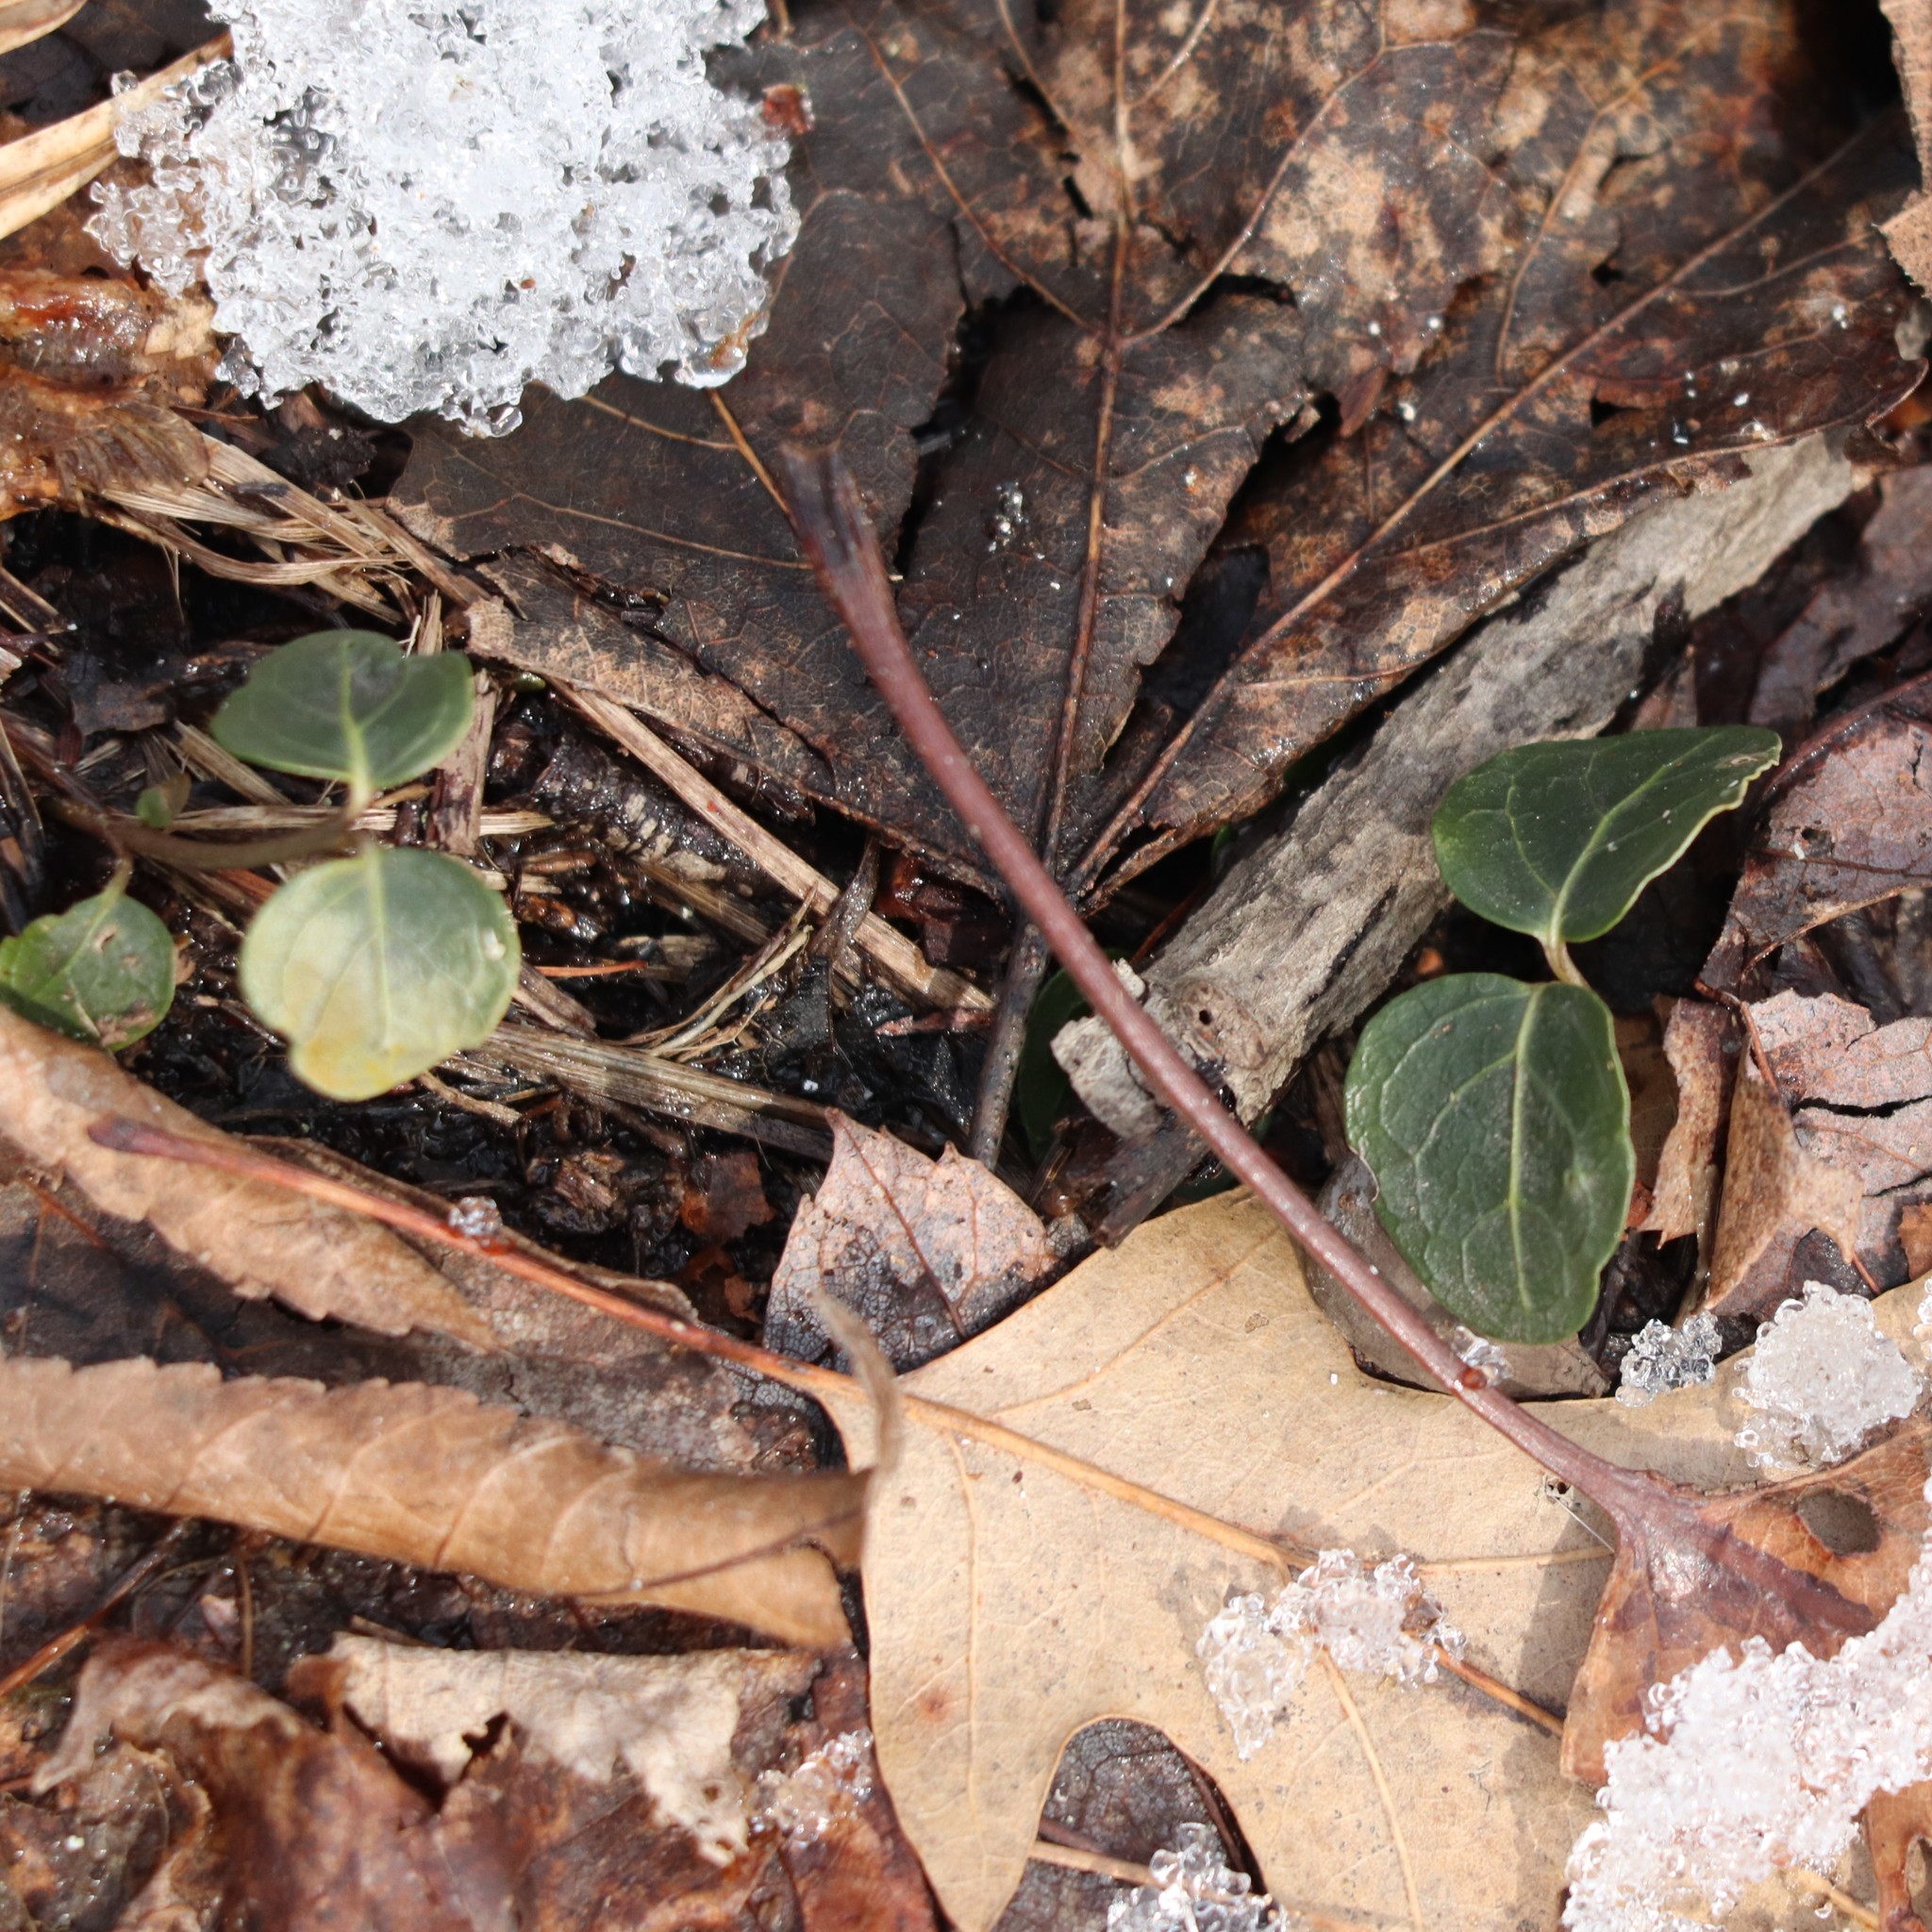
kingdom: Plantae
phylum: Tracheophyta
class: Magnoliopsida
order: Gentianales
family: Rubiaceae
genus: Mitchella
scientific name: Mitchella repens
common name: Partridge-berry
